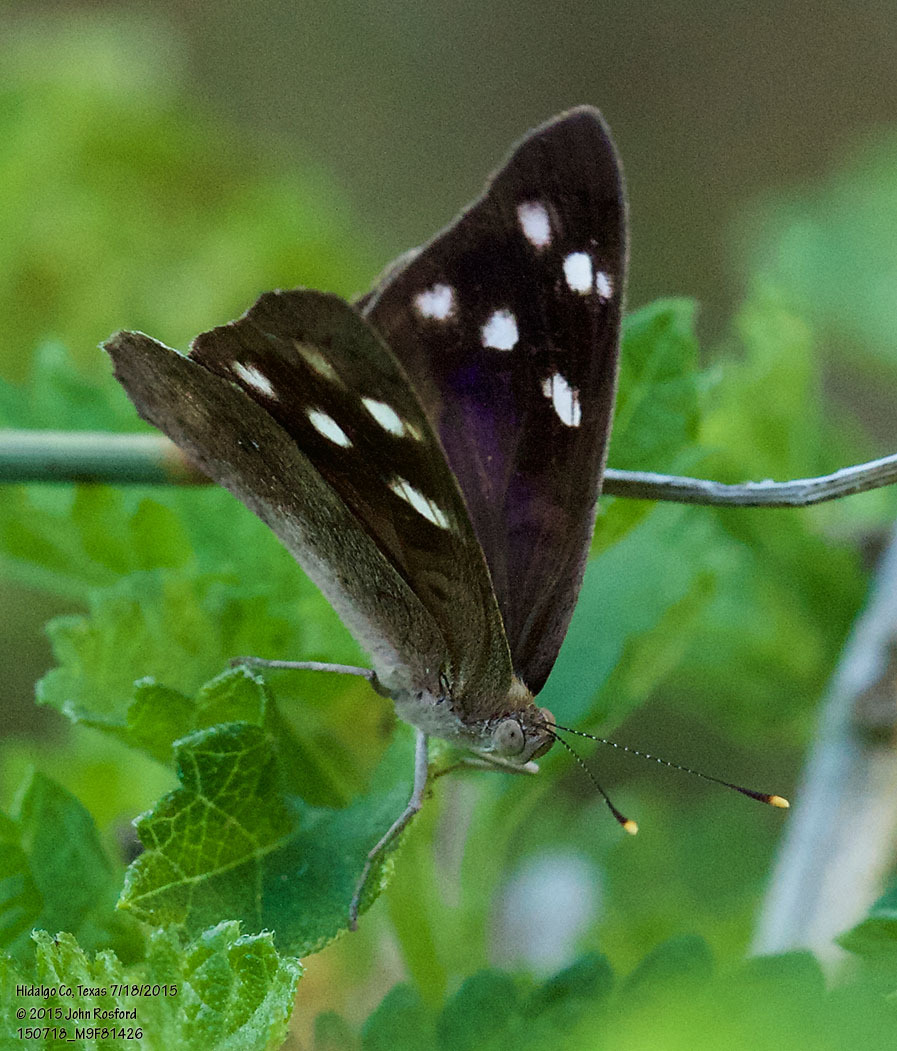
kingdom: Animalia
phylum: Arthropoda
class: Insecta
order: Lepidoptera
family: Nymphalidae
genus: Eunica
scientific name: Eunica monima
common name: Dingy purplewing
